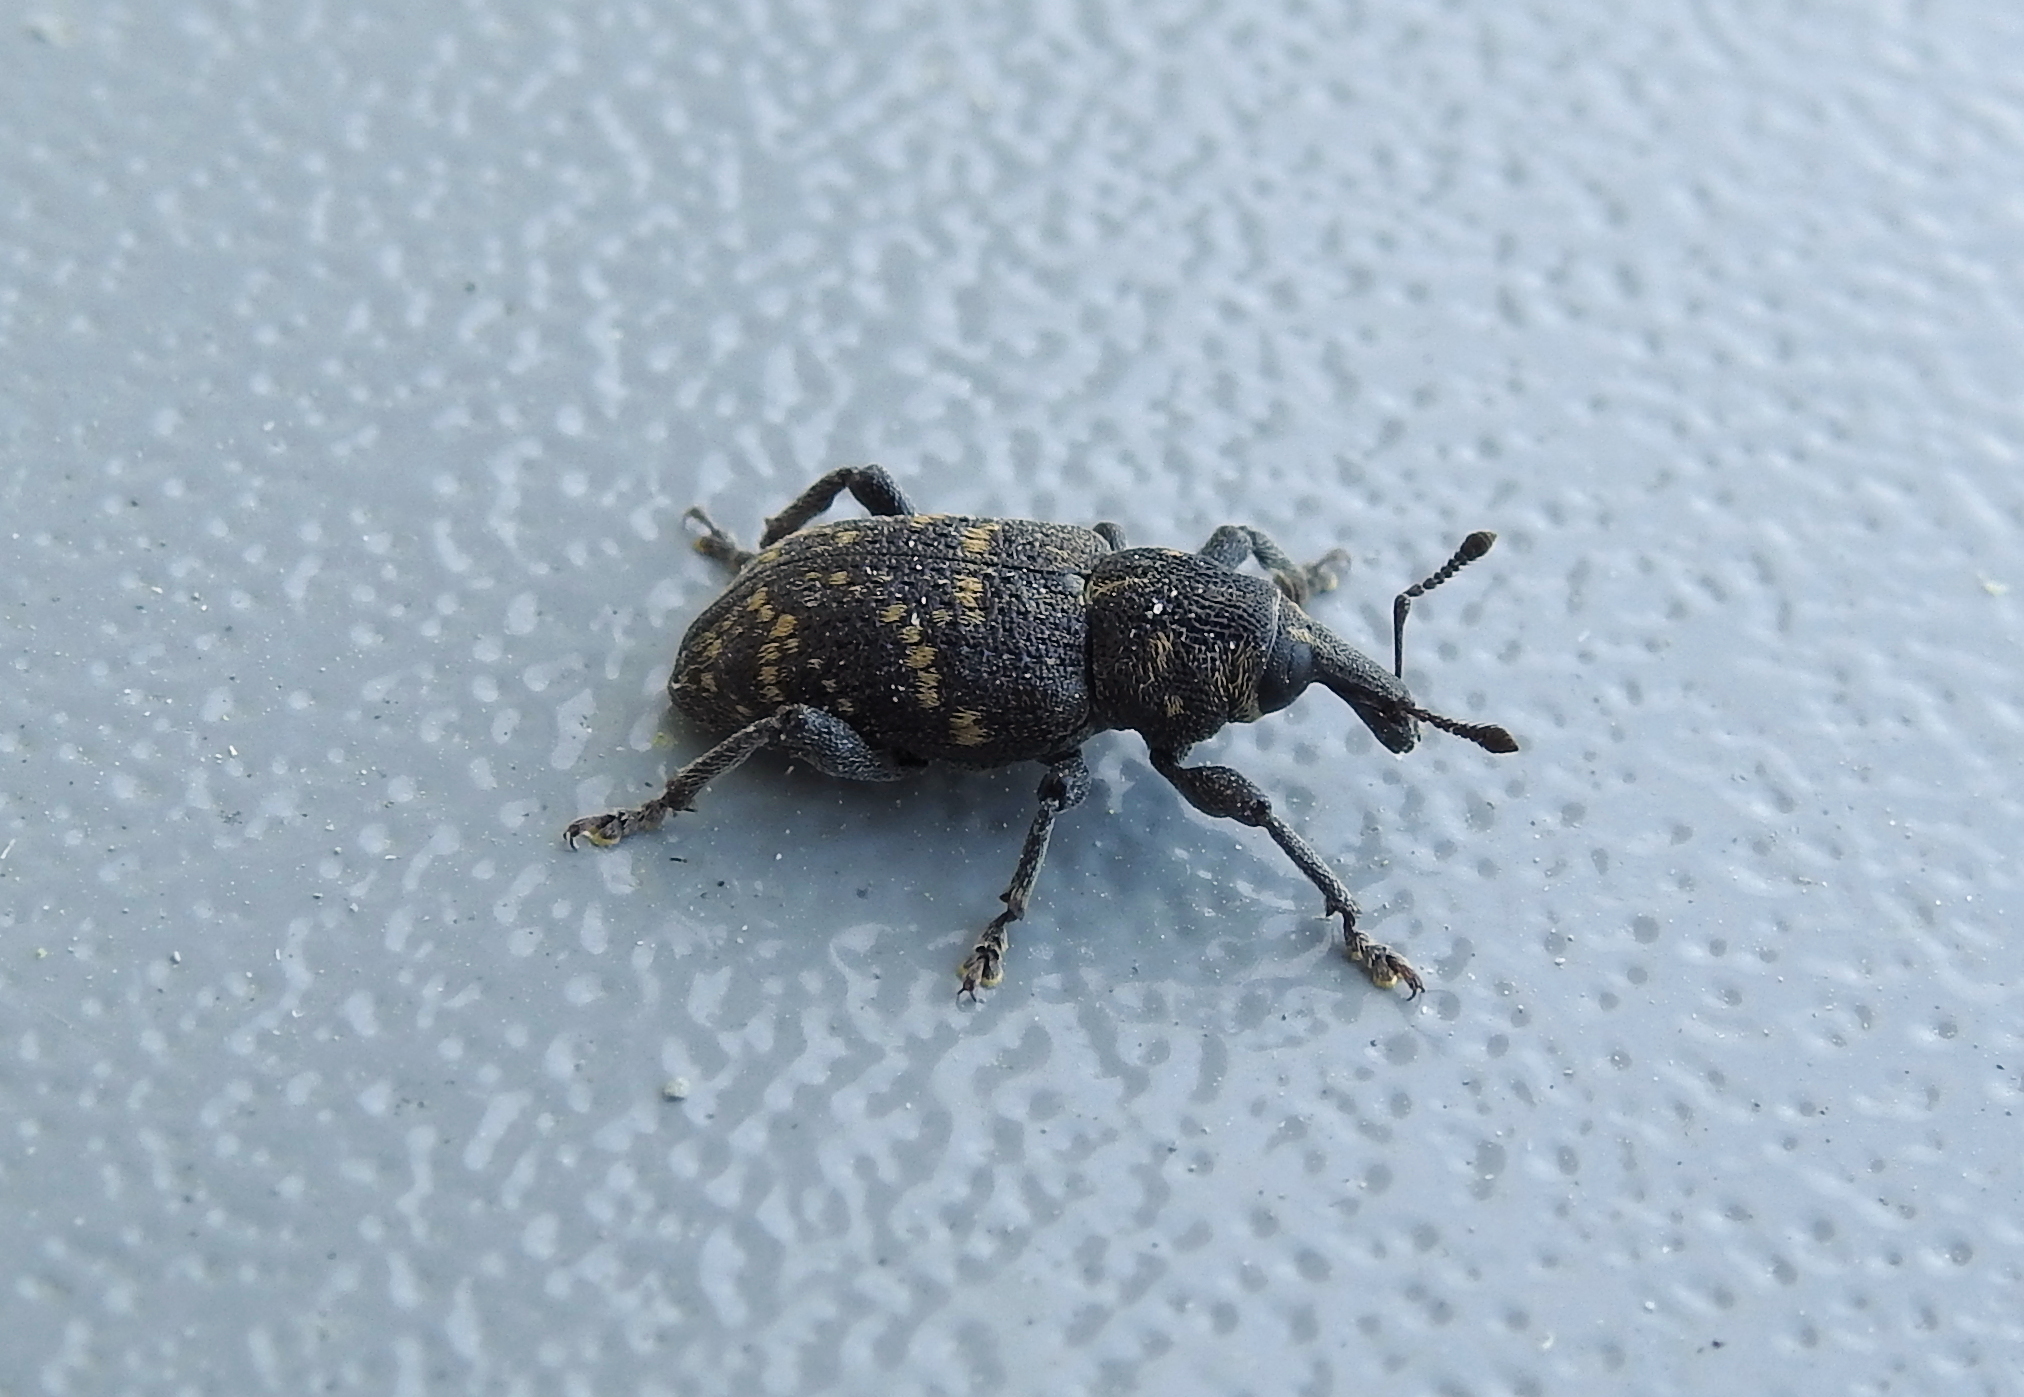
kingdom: Animalia
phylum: Arthropoda
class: Insecta
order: Coleoptera
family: Curculionidae
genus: Hylobius
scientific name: Hylobius abietis
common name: Large pine weevil
